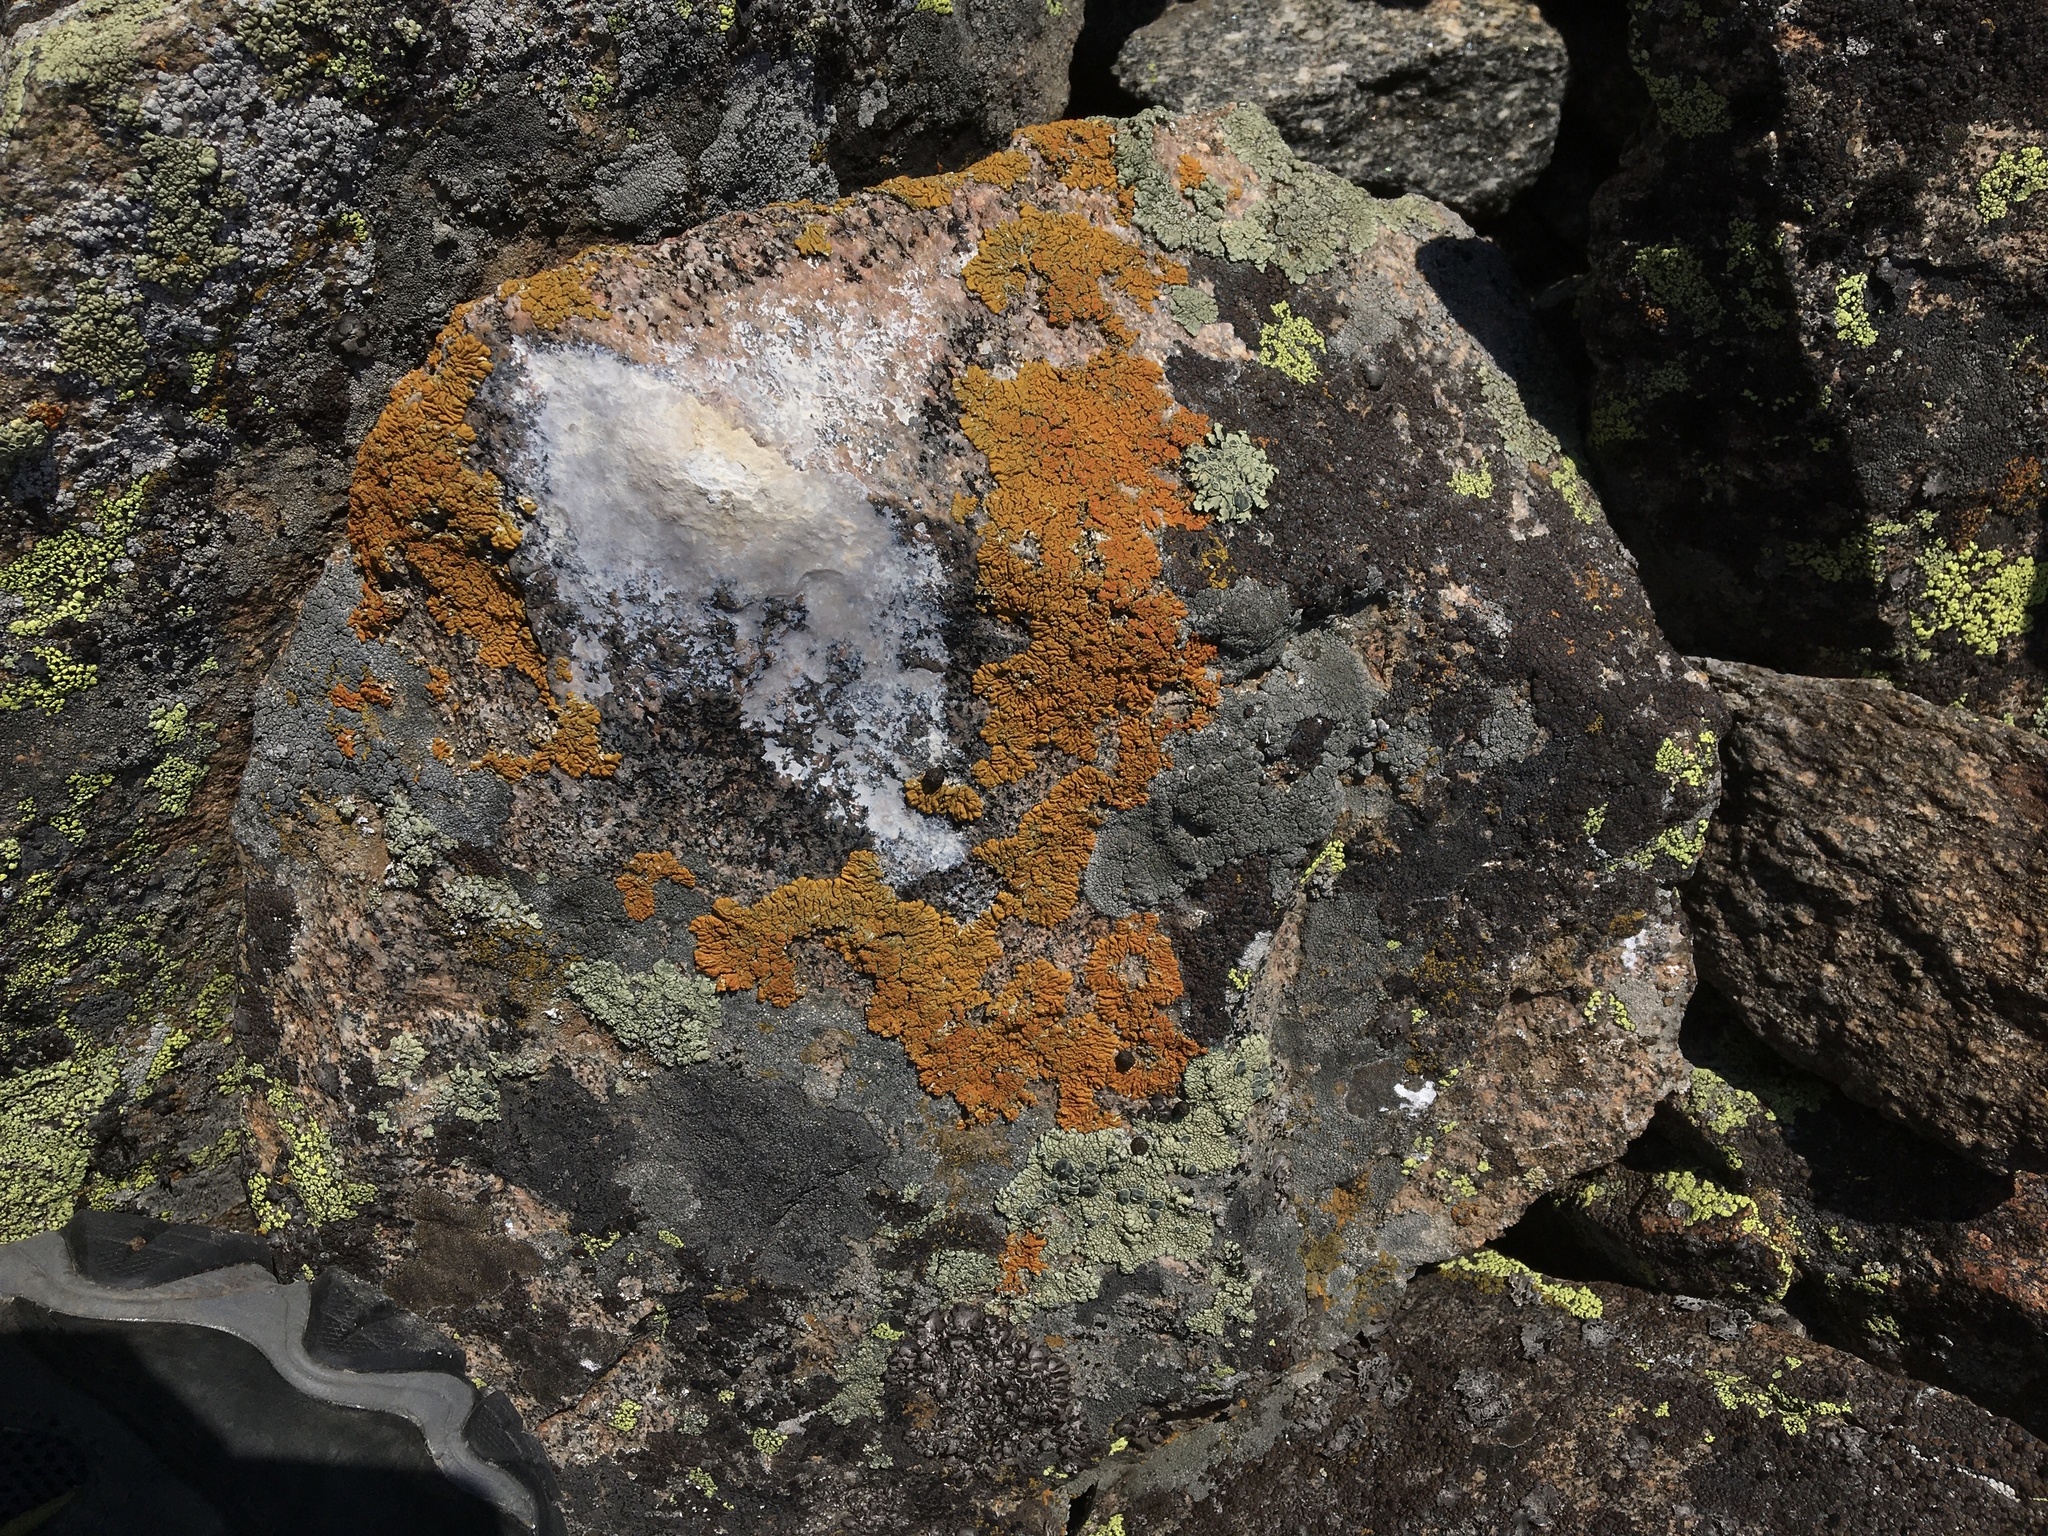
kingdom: Animalia
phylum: Chordata
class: Mammalia
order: Lagomorpha
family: Ochotonidae
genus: Ochotona
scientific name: Ochotona princeps
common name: American pika
